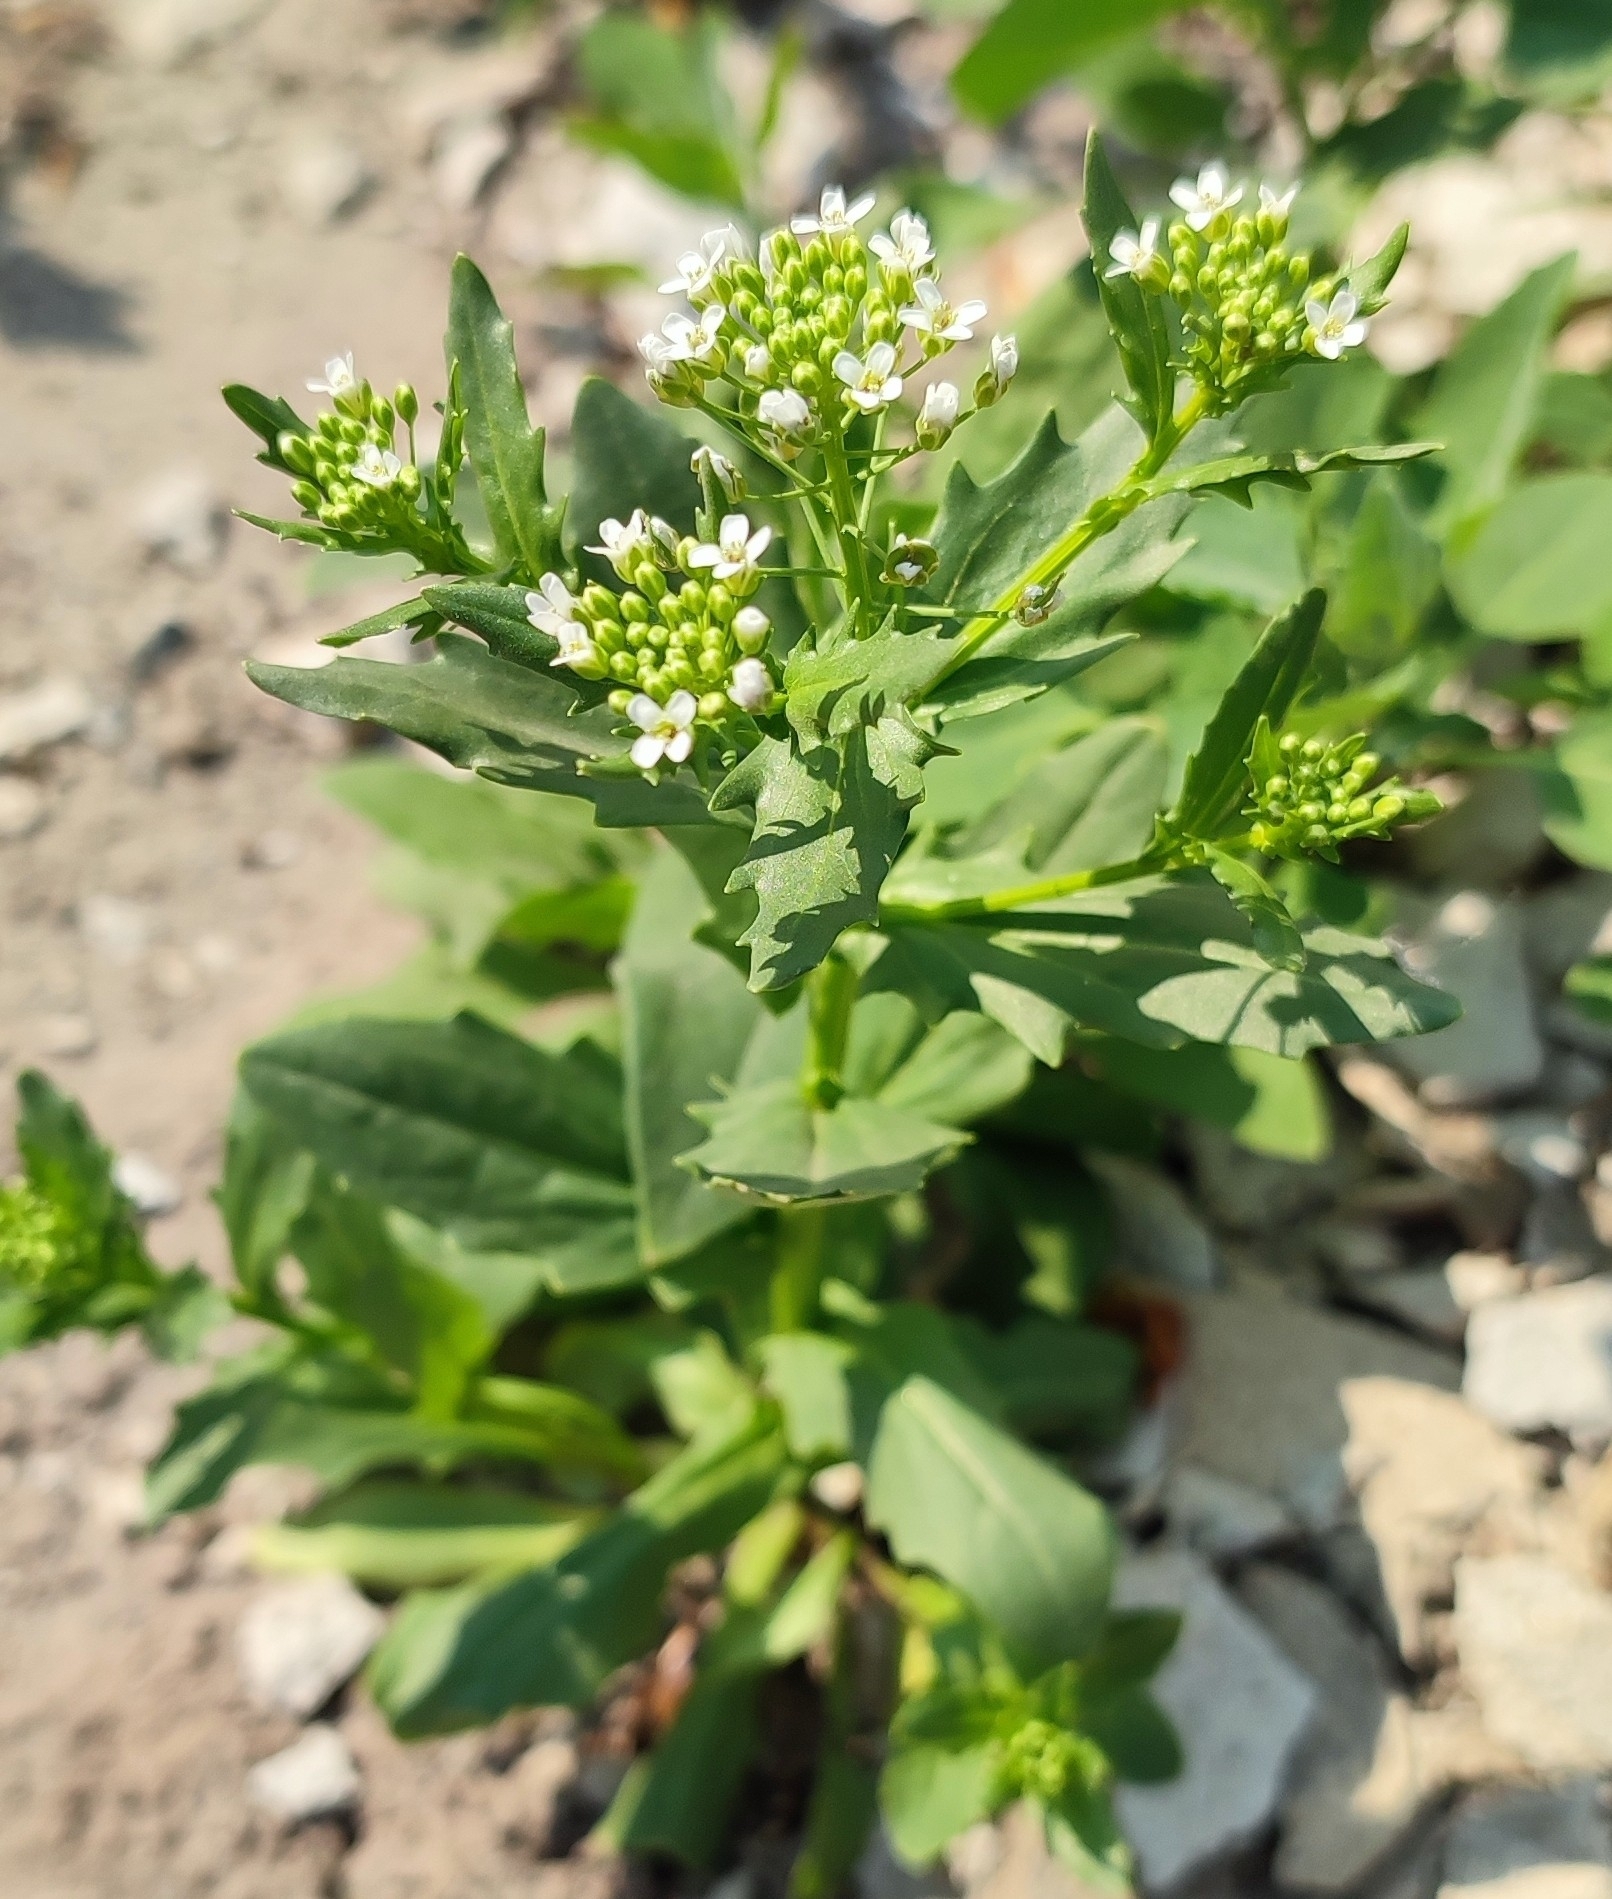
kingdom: Plantae
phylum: Tracheophyta
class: Magnoliopsida
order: Brassicales
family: Brassicaceae
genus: Thlaspi
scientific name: Thlaspi arvense
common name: Field pennycress
